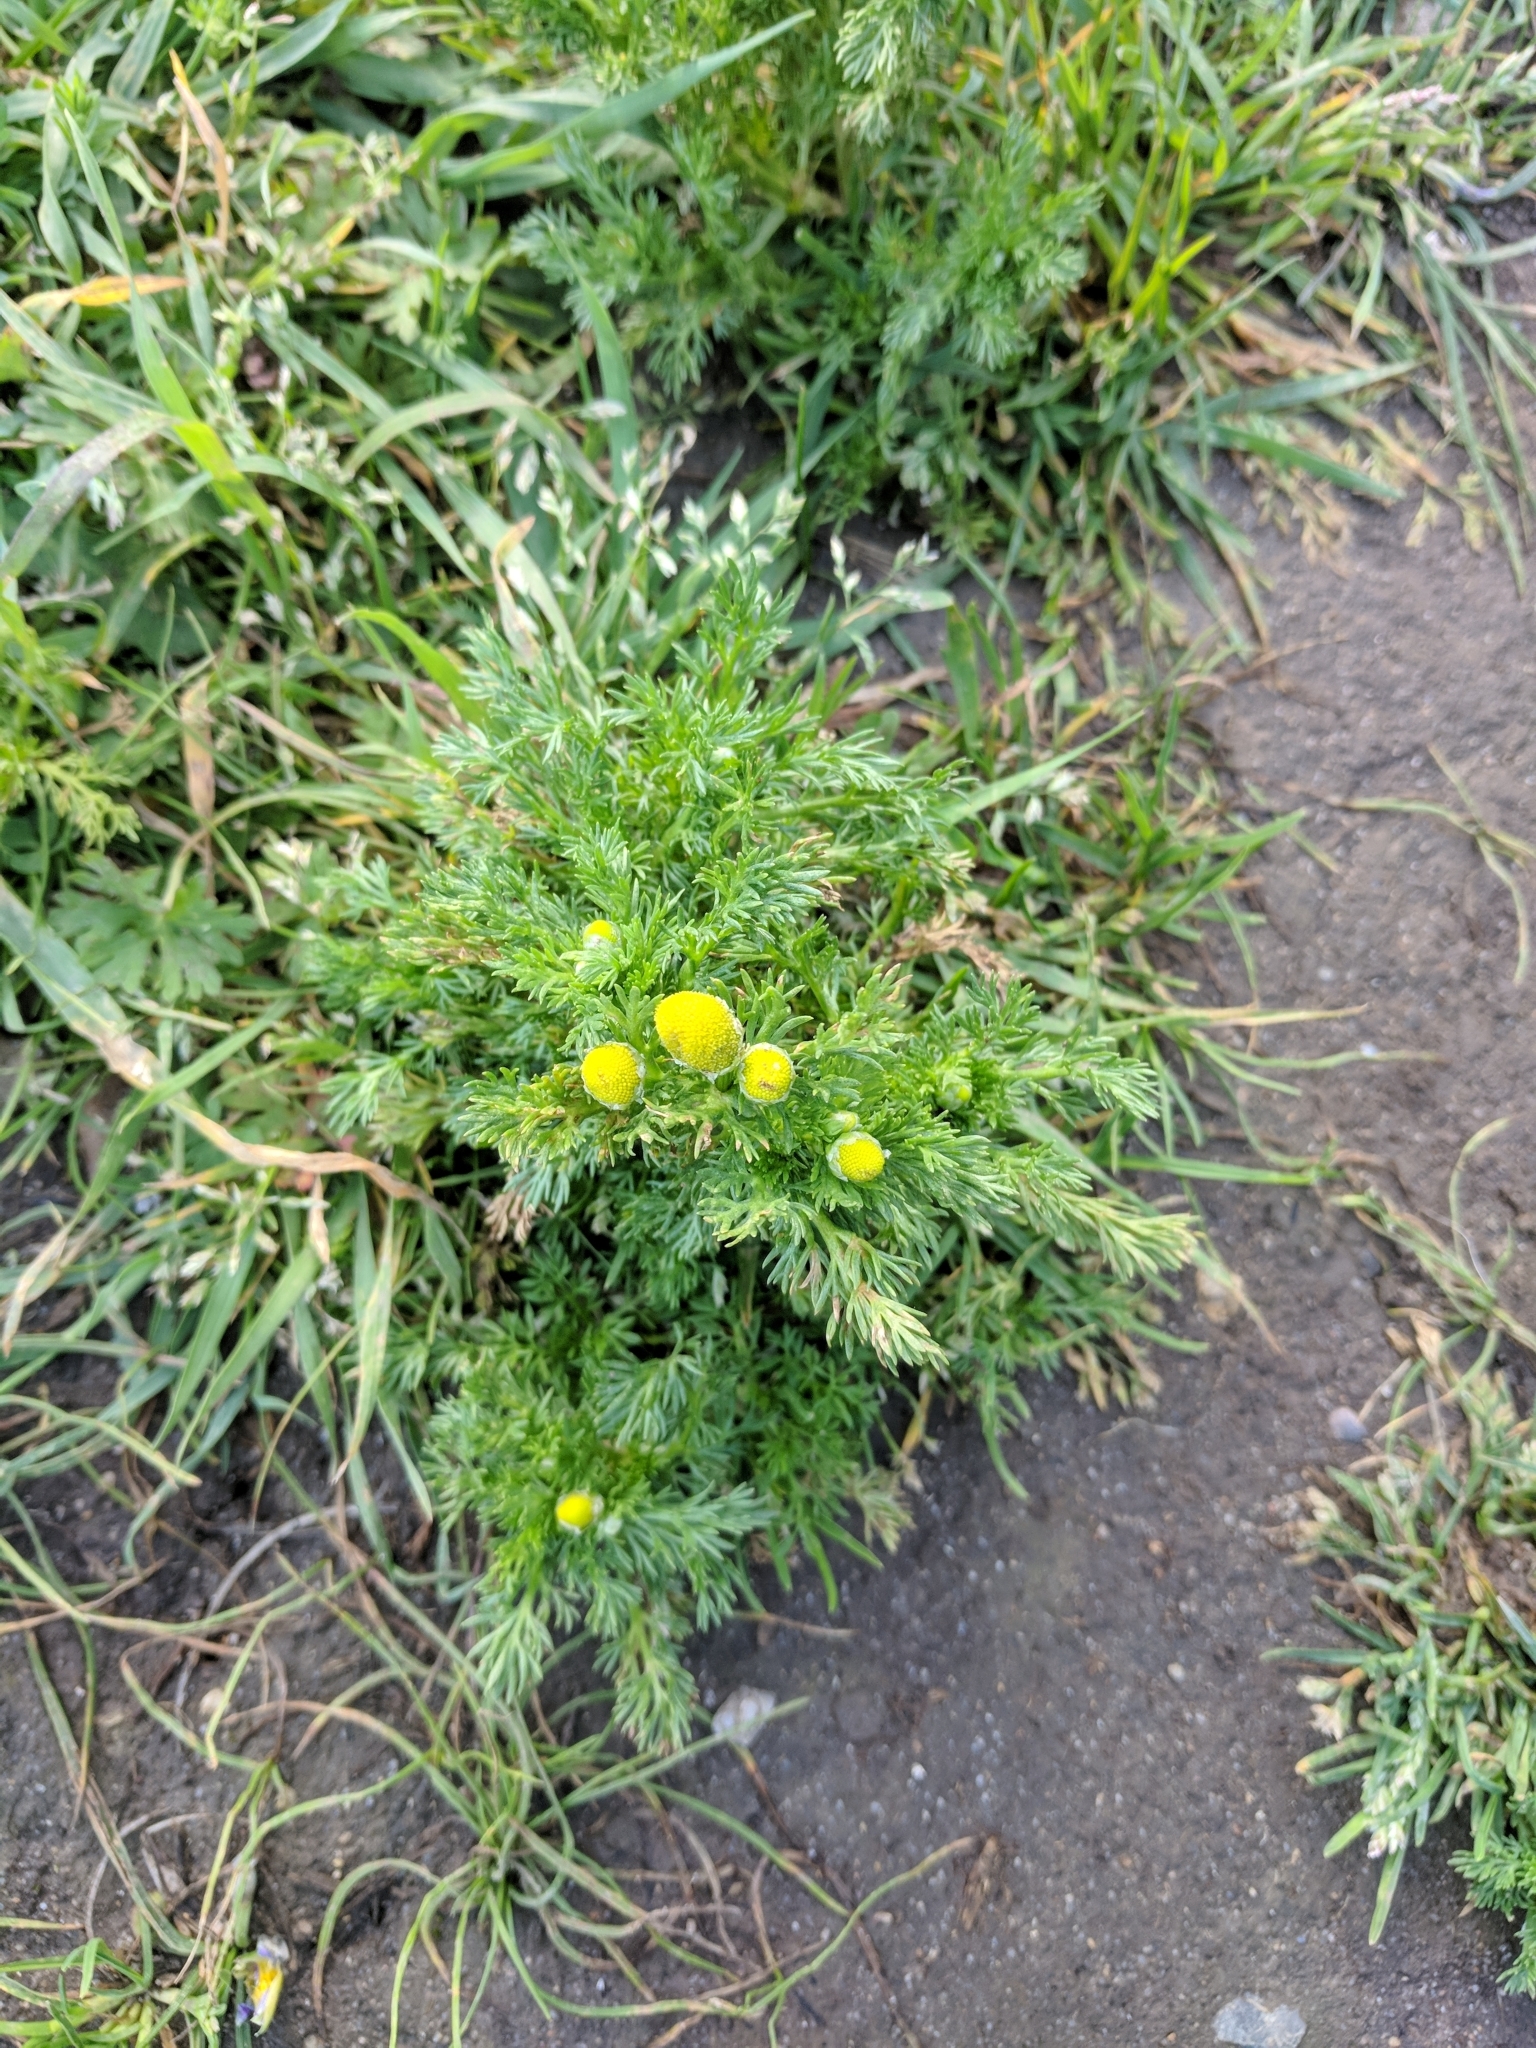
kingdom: Plantae
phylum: Tracheophyta
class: Magnoliopsida
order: Asterales
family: Asteraceae
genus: Matricaria
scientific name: Matricaria discoidea
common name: Disc mayweed
